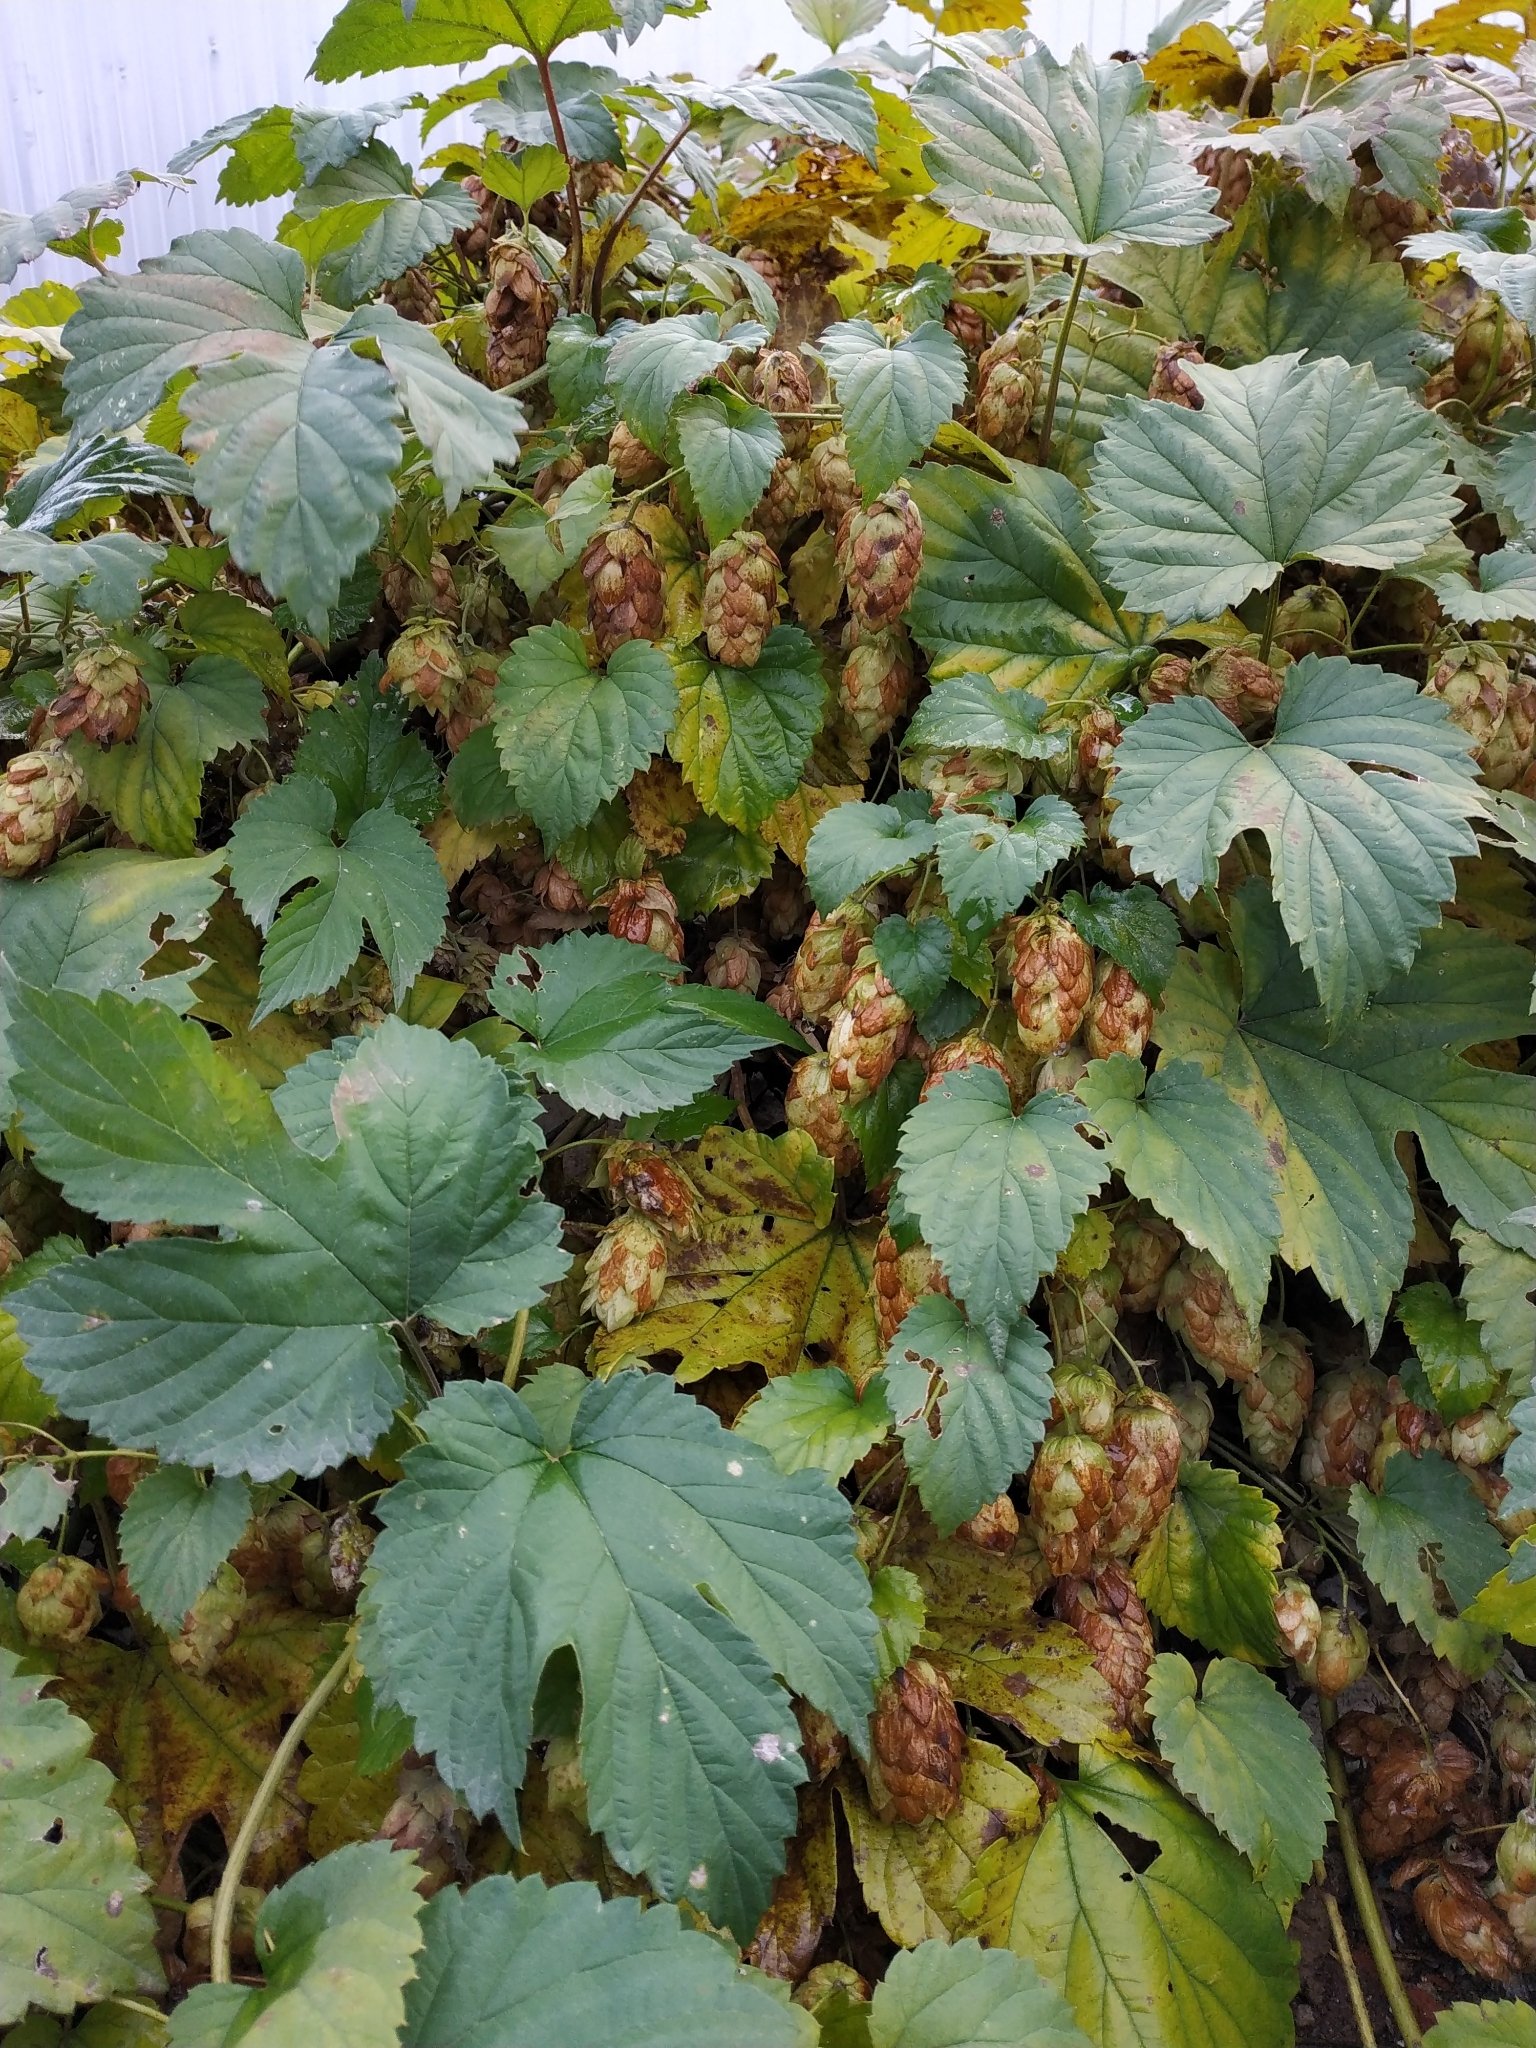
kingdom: Plantae
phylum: Tracheophyta
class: Magnoliopsida
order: Rosales
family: Cannabaceae
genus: Humulus
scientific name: Humulus lupulus
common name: Hop
